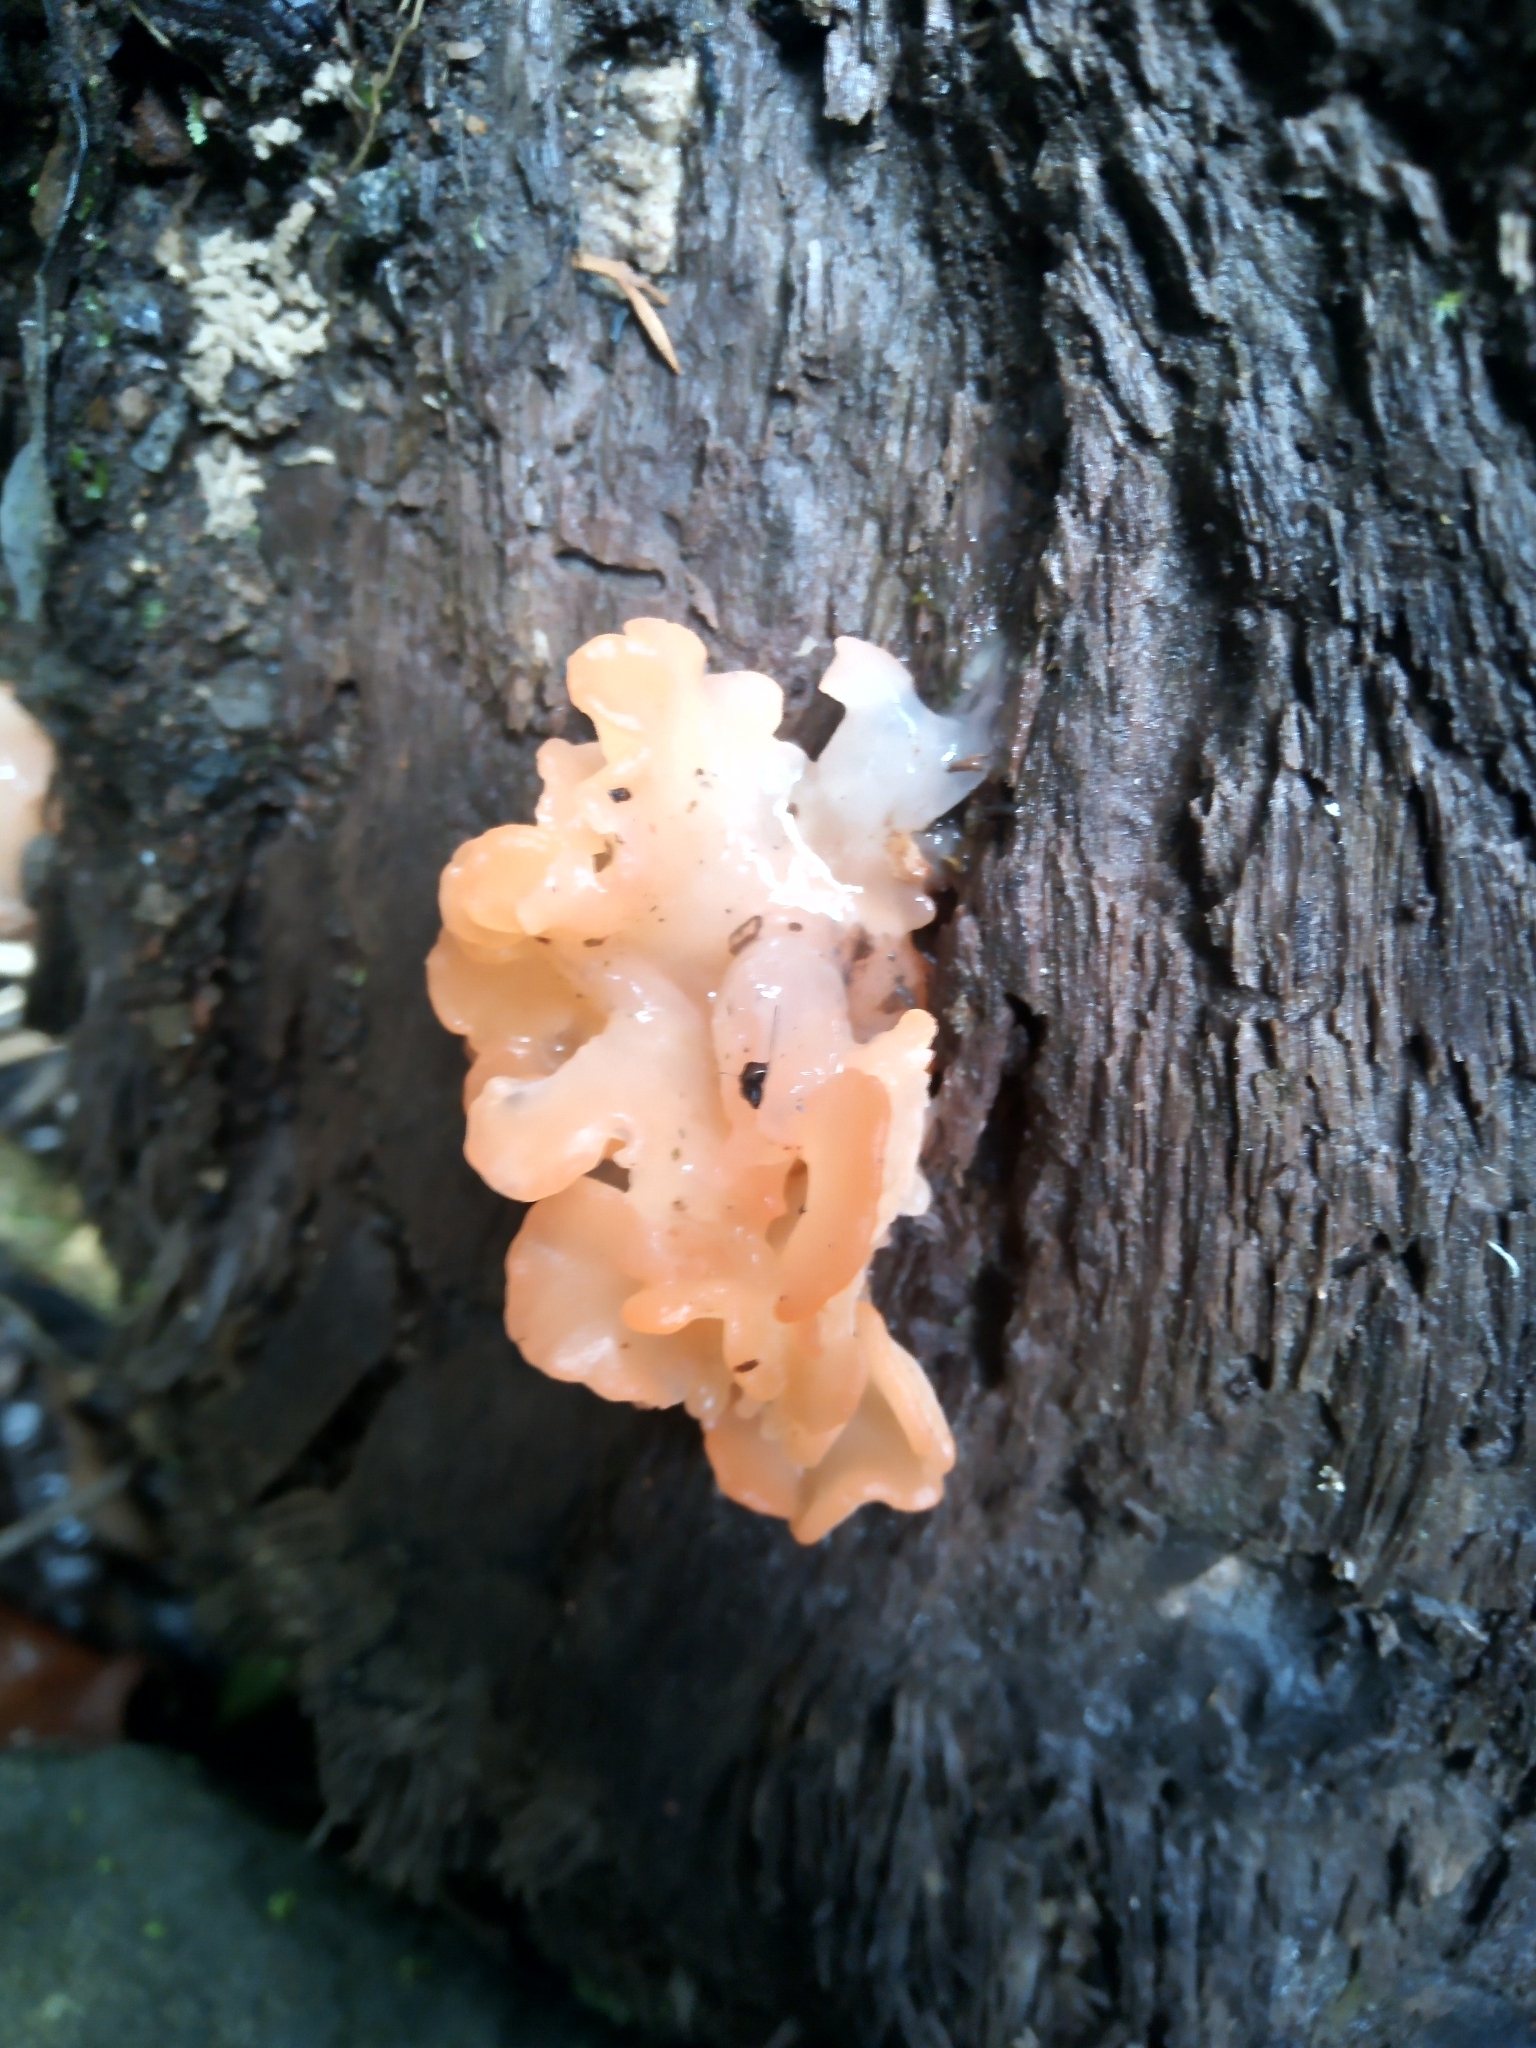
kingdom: Fungi
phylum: Basidiomycota
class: Tremellomycetes
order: Tremellales
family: Tremellaceae
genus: Tremella
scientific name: Tremella
